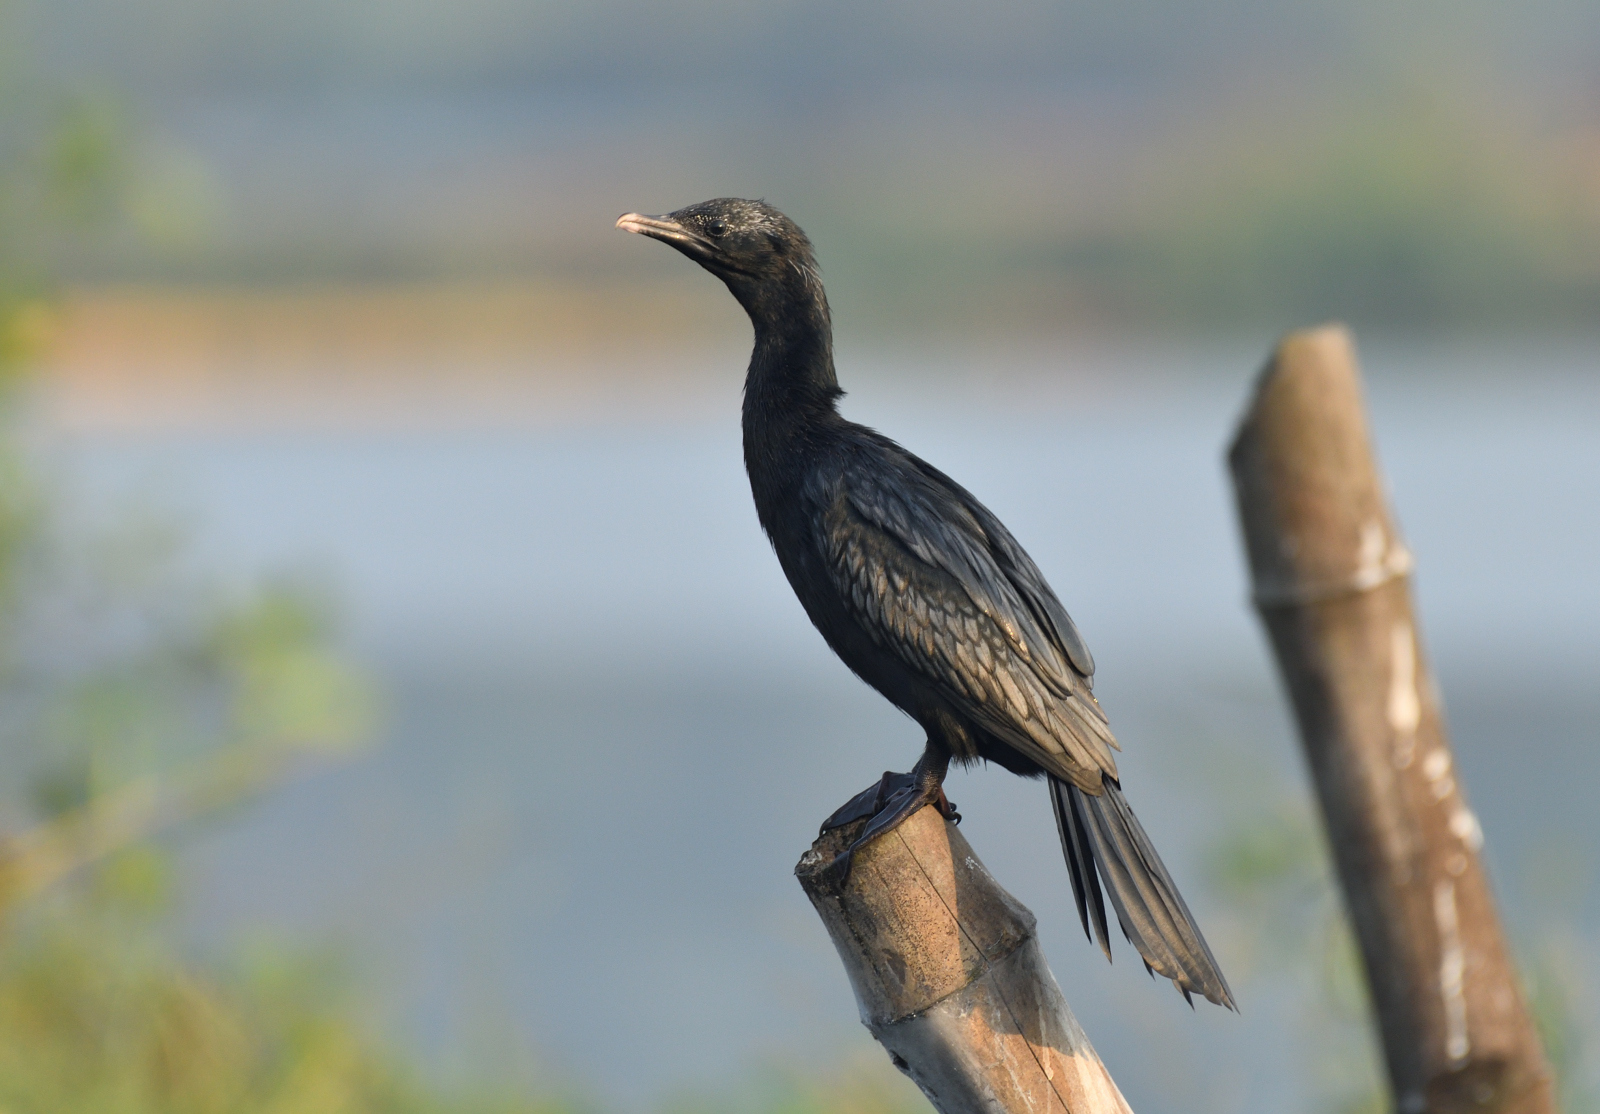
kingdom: Animalia
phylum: Chordata
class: Aves
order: Suliformes
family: Phalacrocoracidae
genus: Microcarbo
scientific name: Microcarbo niger
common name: Little cormorant
